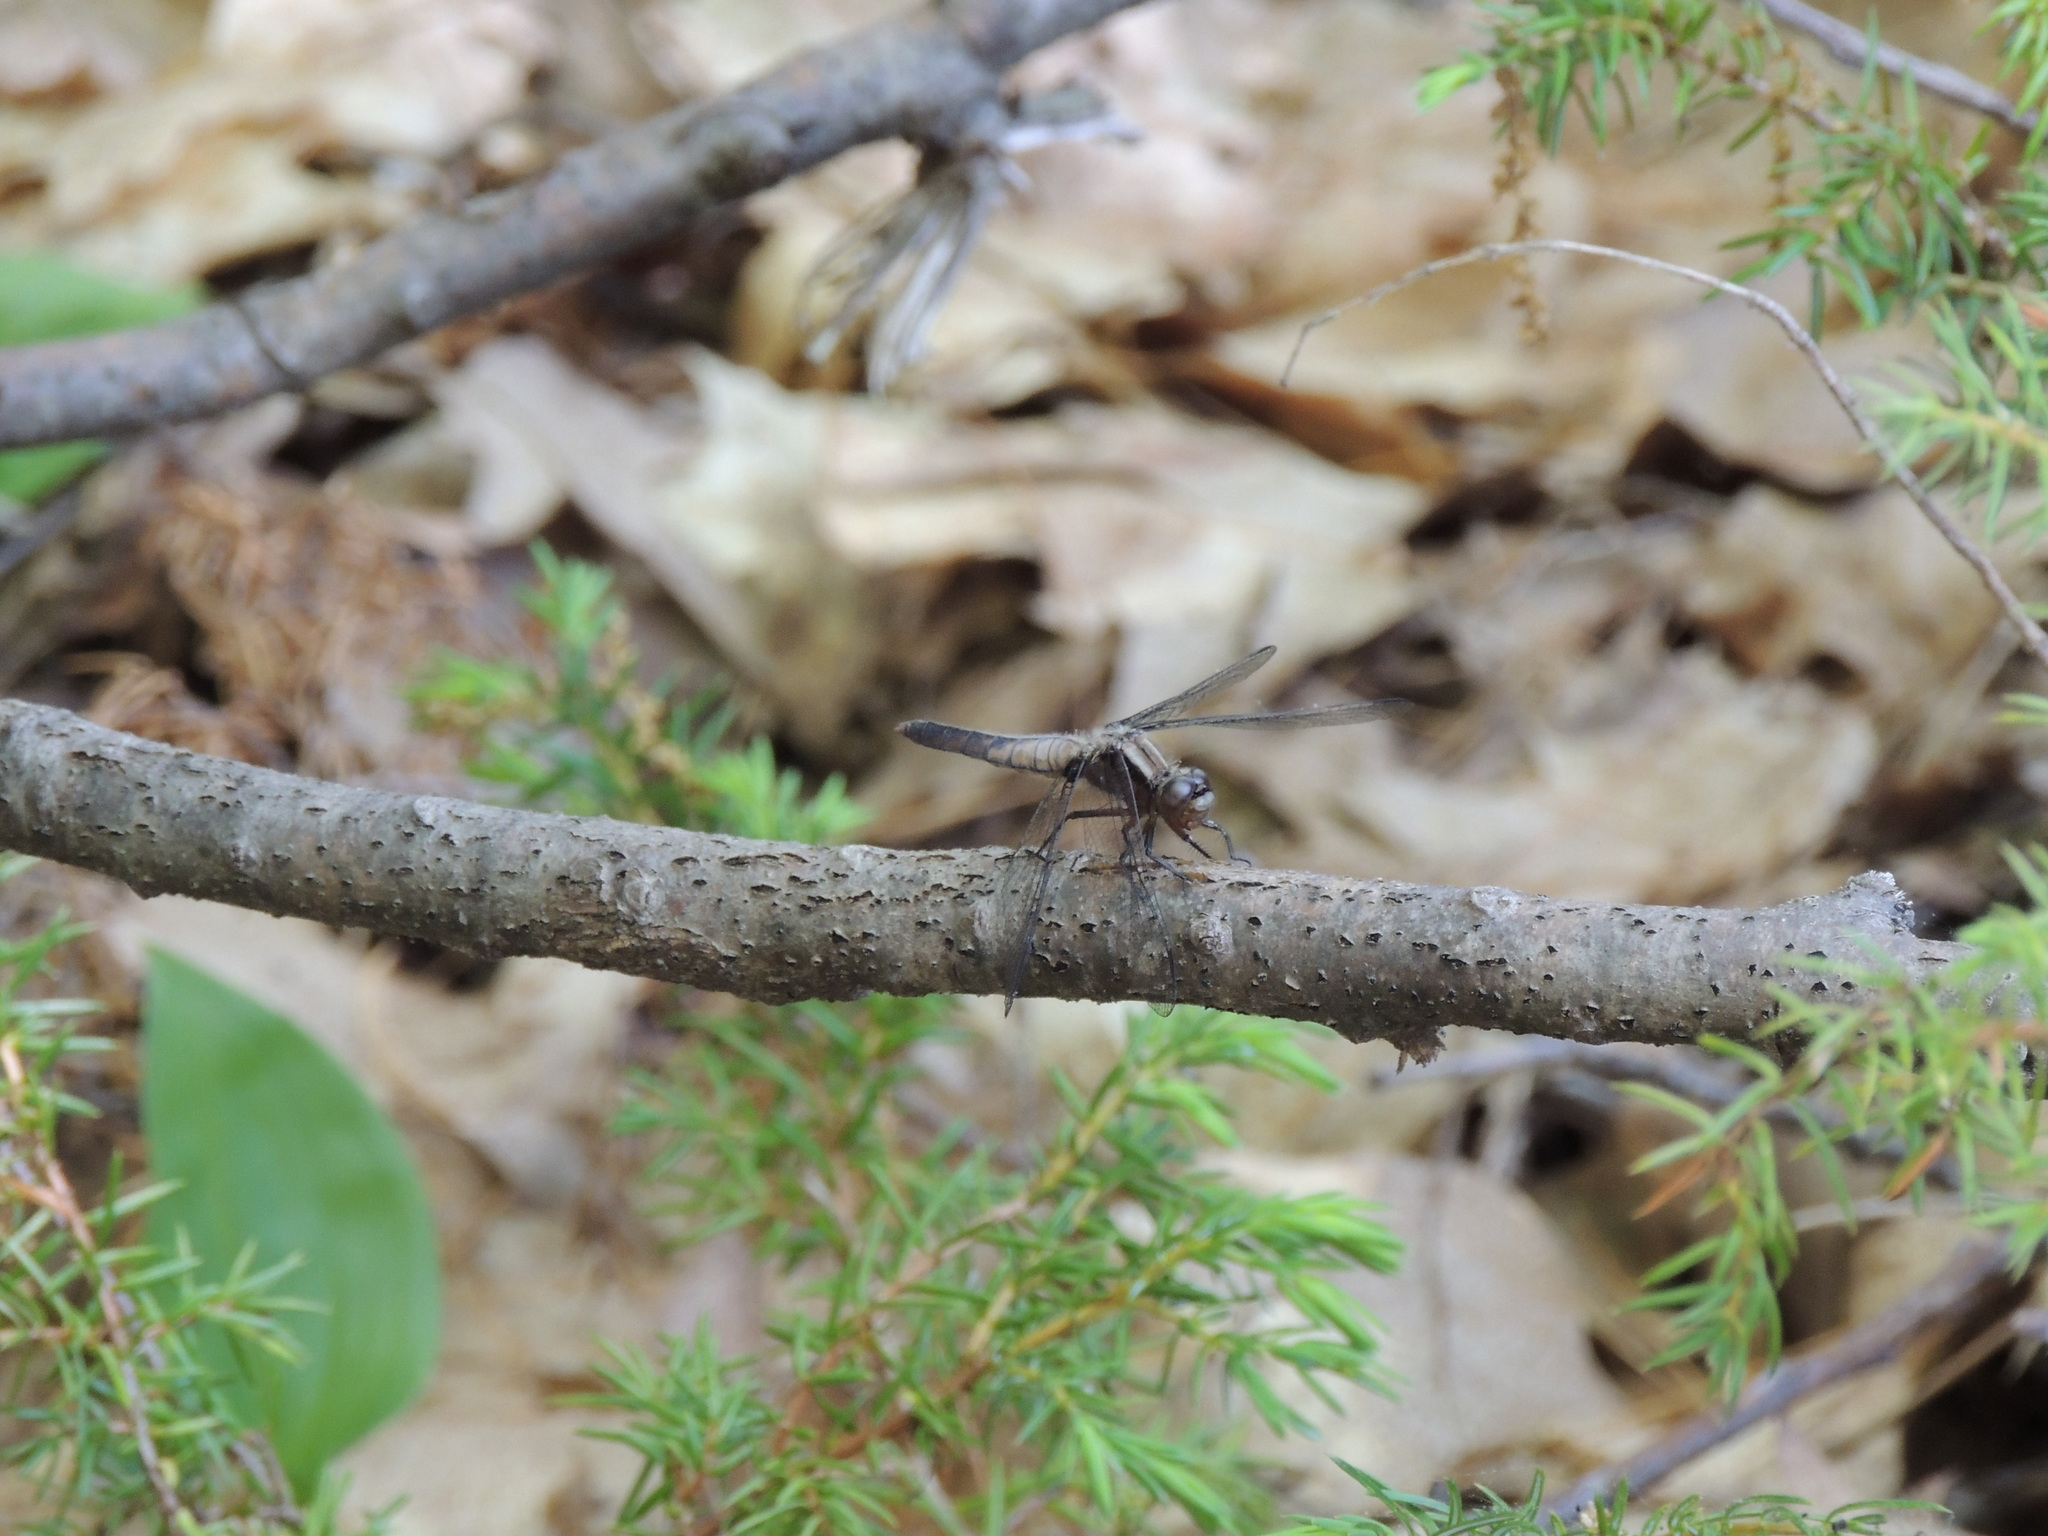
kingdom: Animalia
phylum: Arthropoda
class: Insecta
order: Odonata
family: Libellulidae
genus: Ladona
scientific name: Ladona julia
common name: Chalk-fronted corporal
